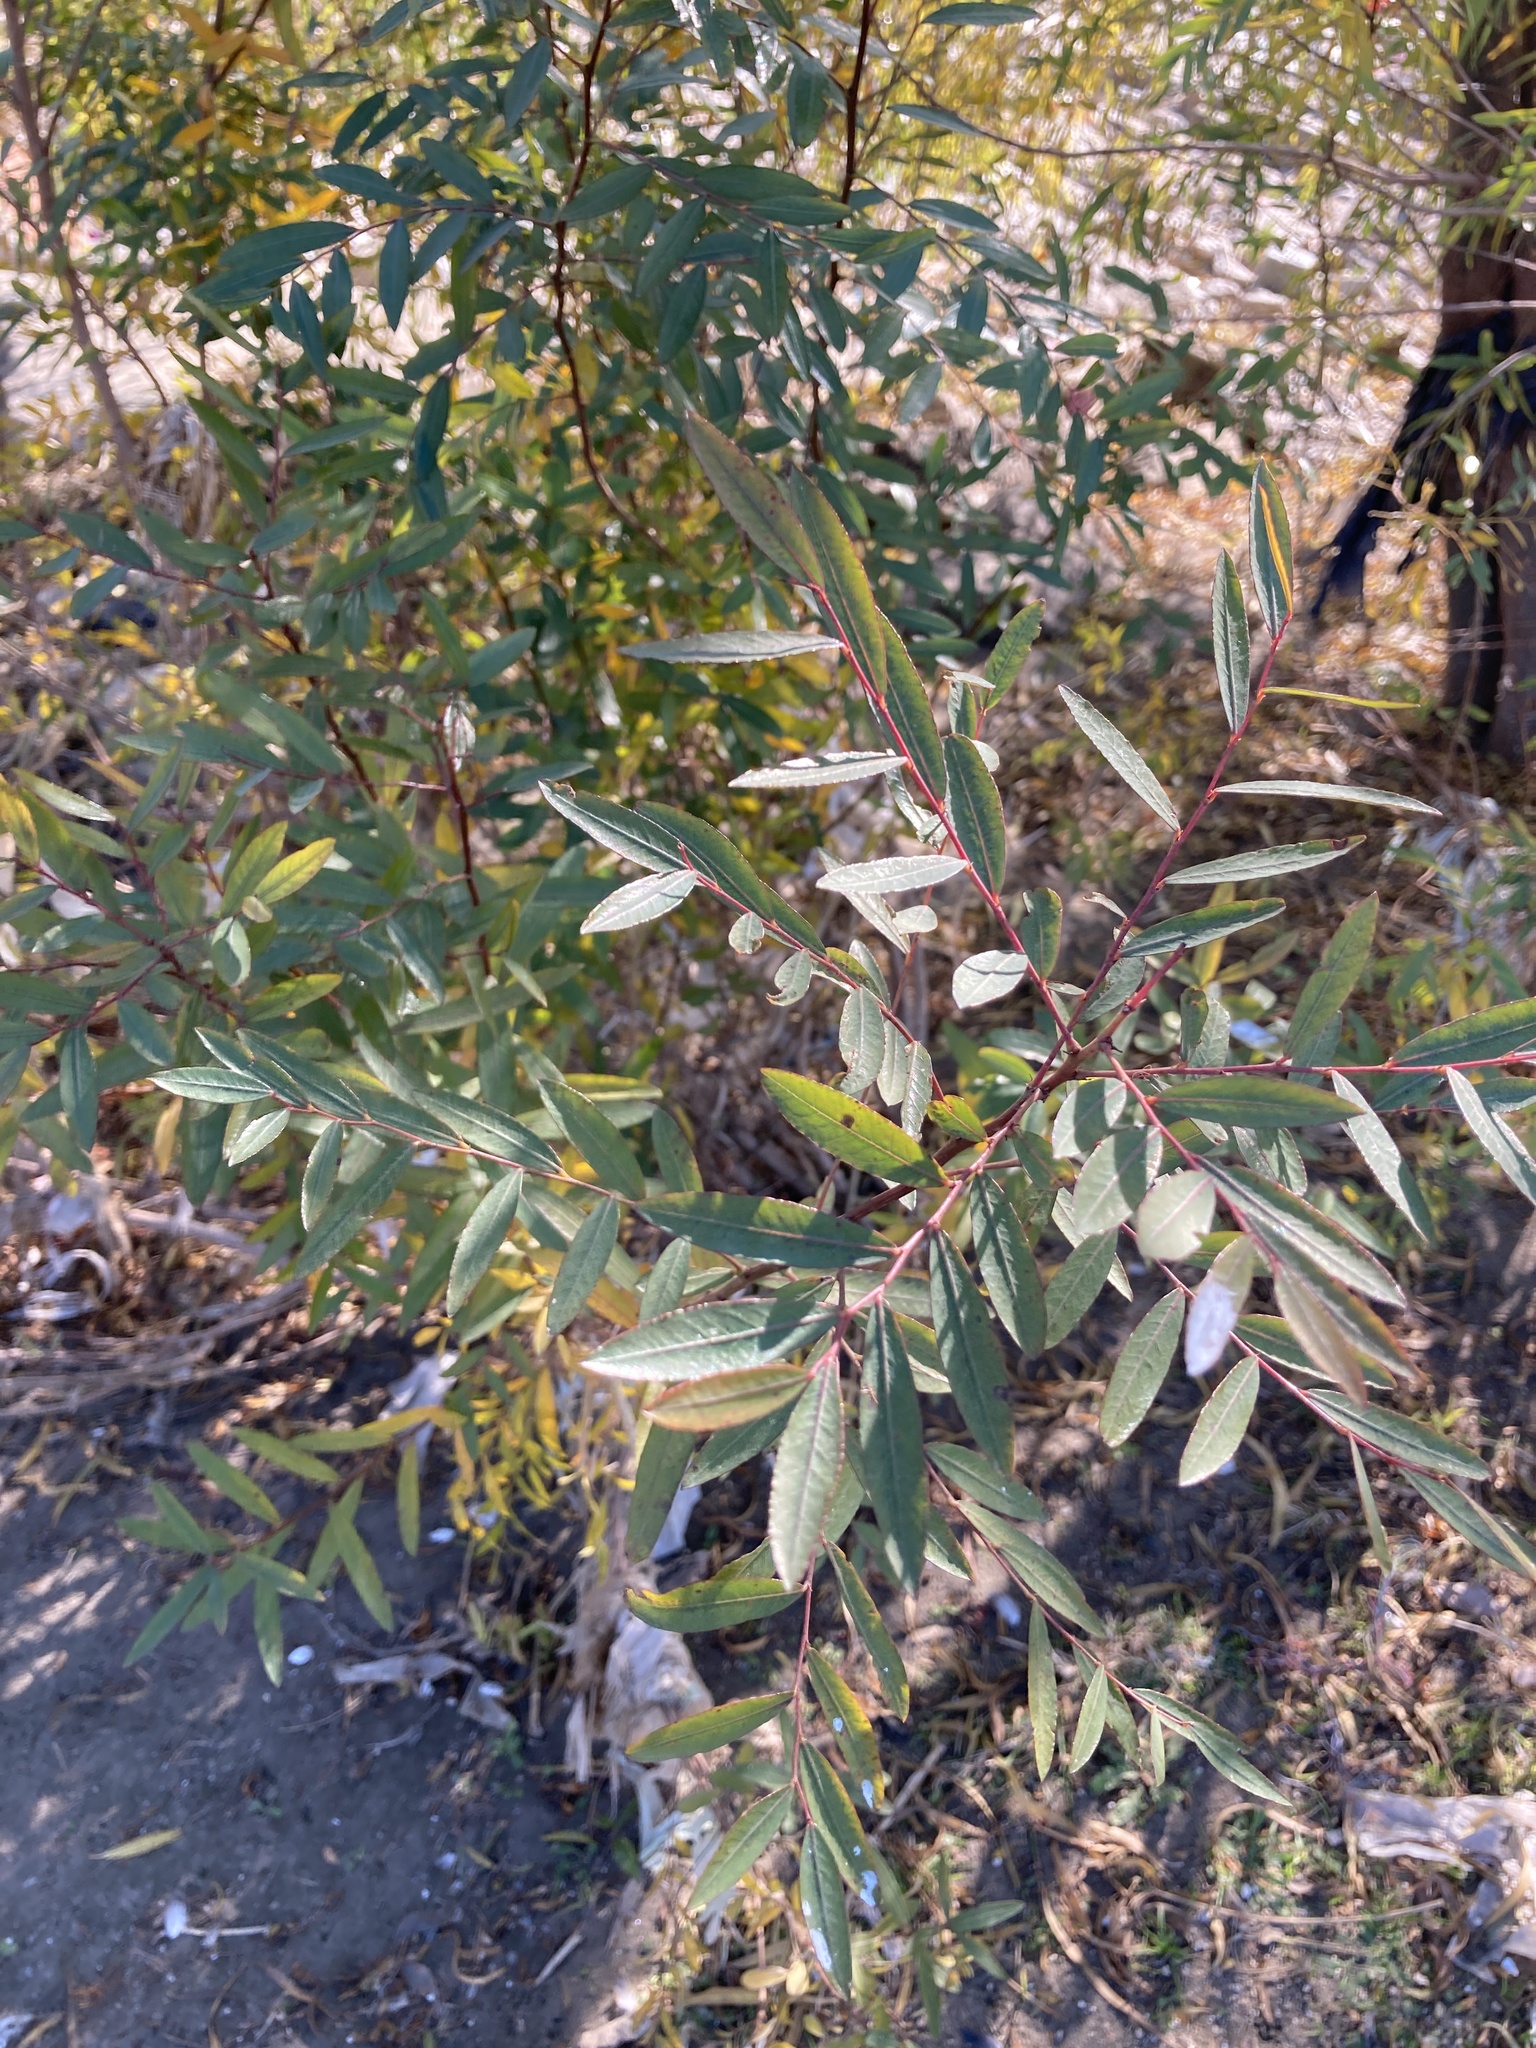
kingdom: Plantae
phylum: Tracheophyta
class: Magnoliopsida
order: Malpighiales
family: Phyllanthaceae
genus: Phyllanthus
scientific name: Phyllanthus sellowianus
